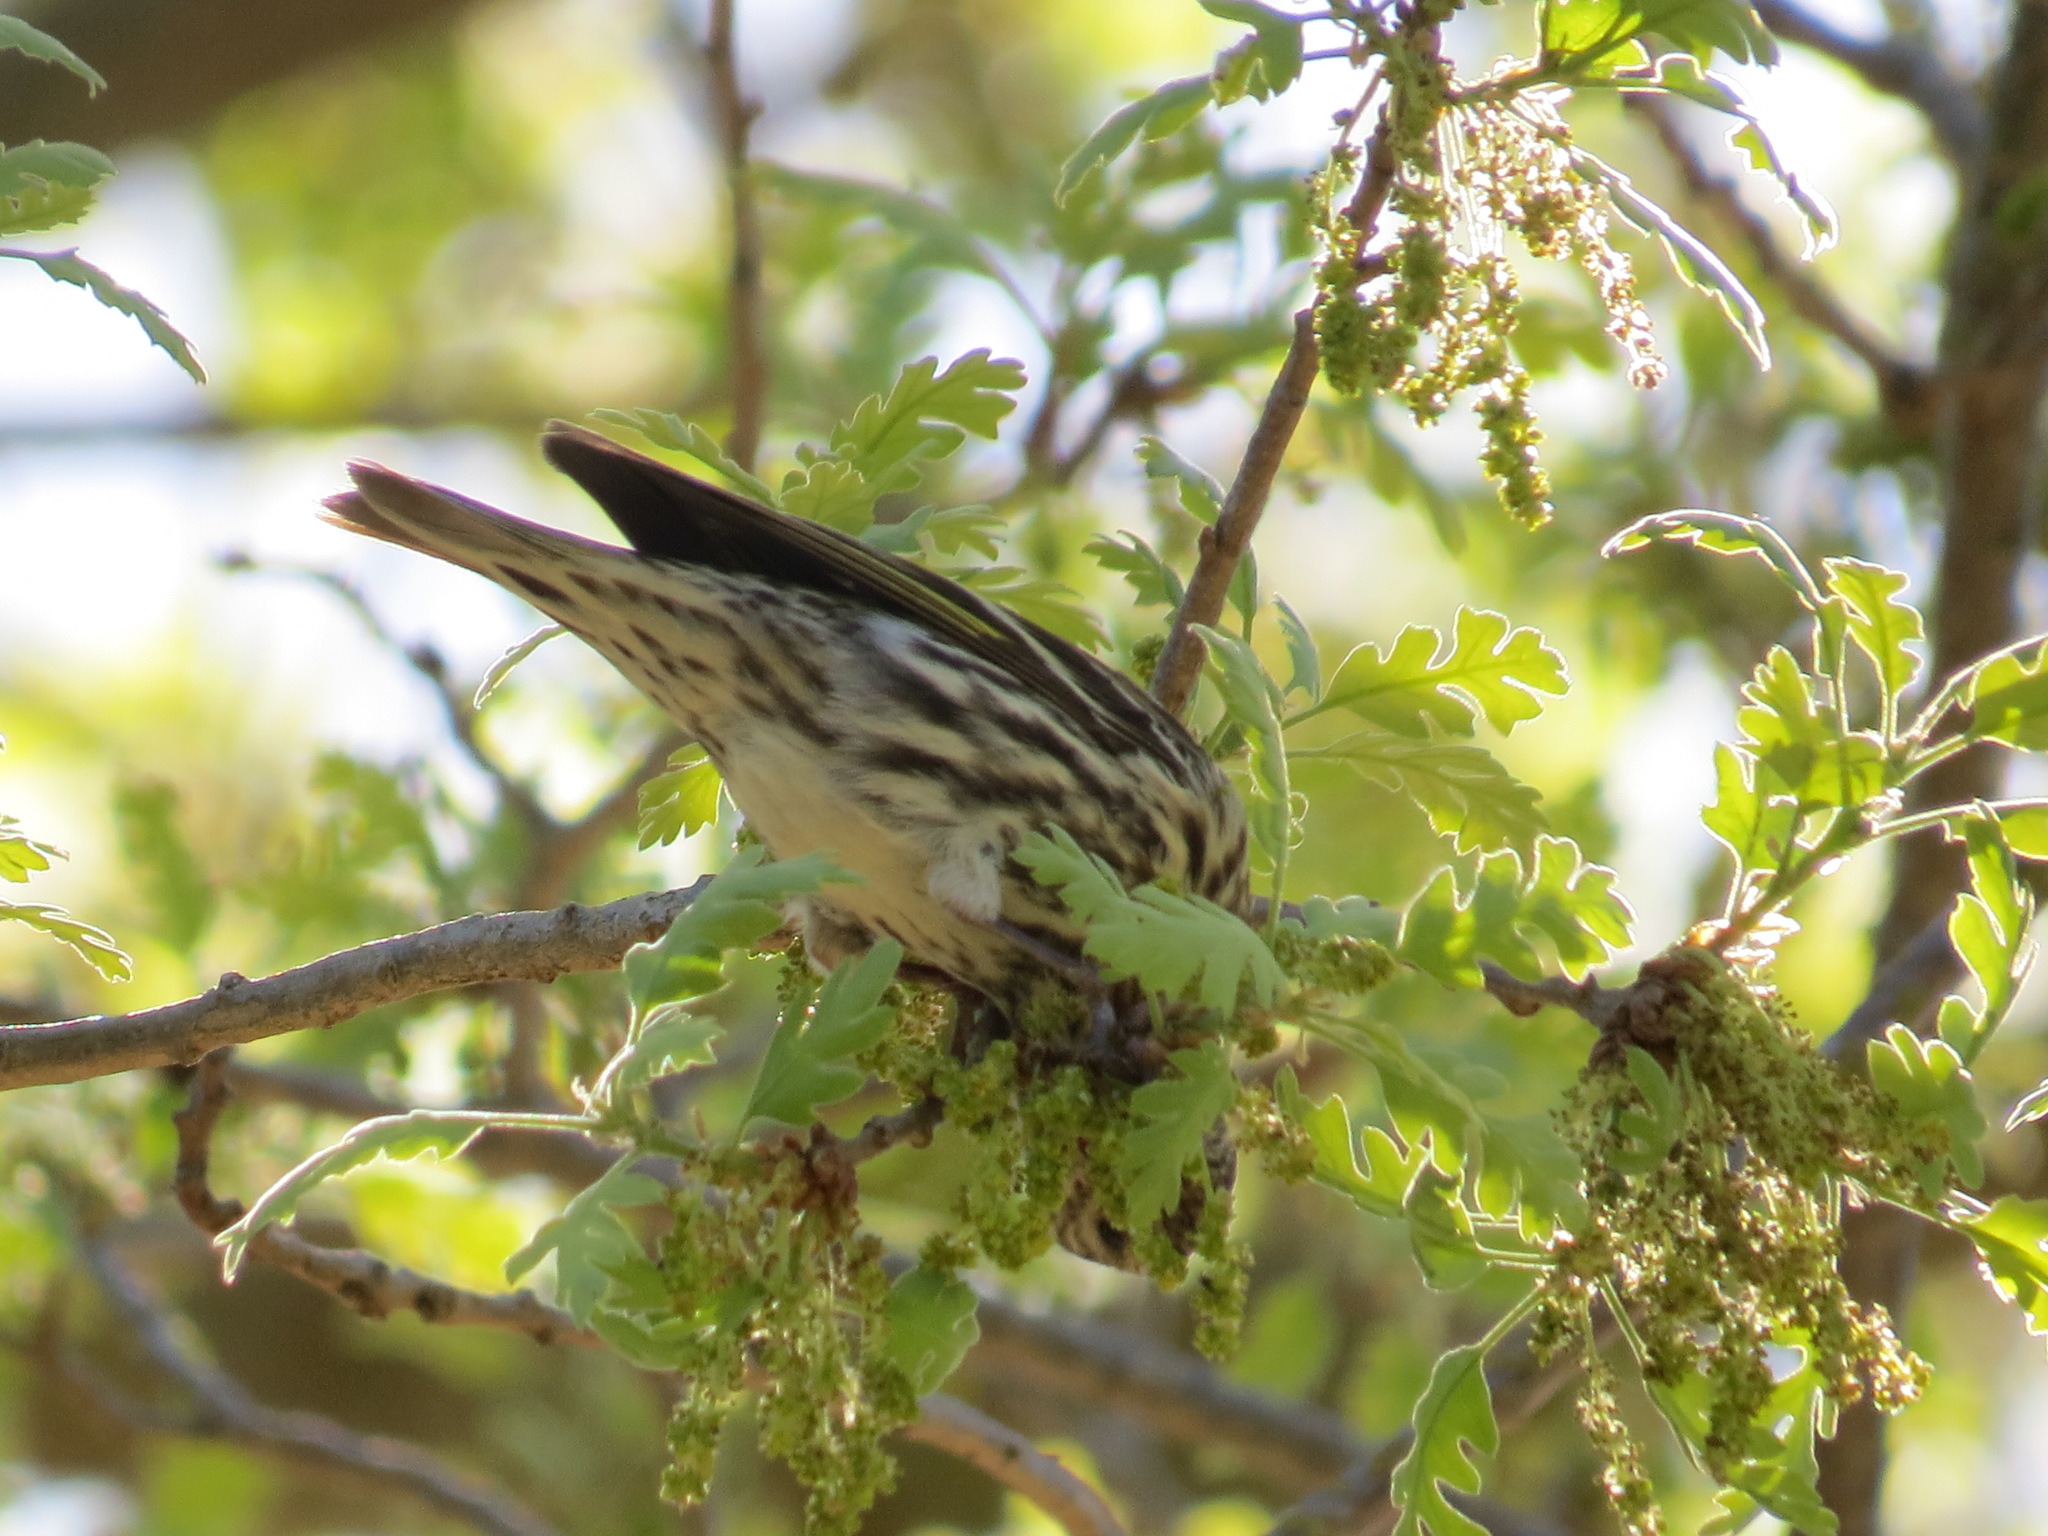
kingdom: Animalia
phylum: Chordata
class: Aves
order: Passeriformes
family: Fringillidae
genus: Spinus
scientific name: Spinus pinus
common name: Pine siskin
